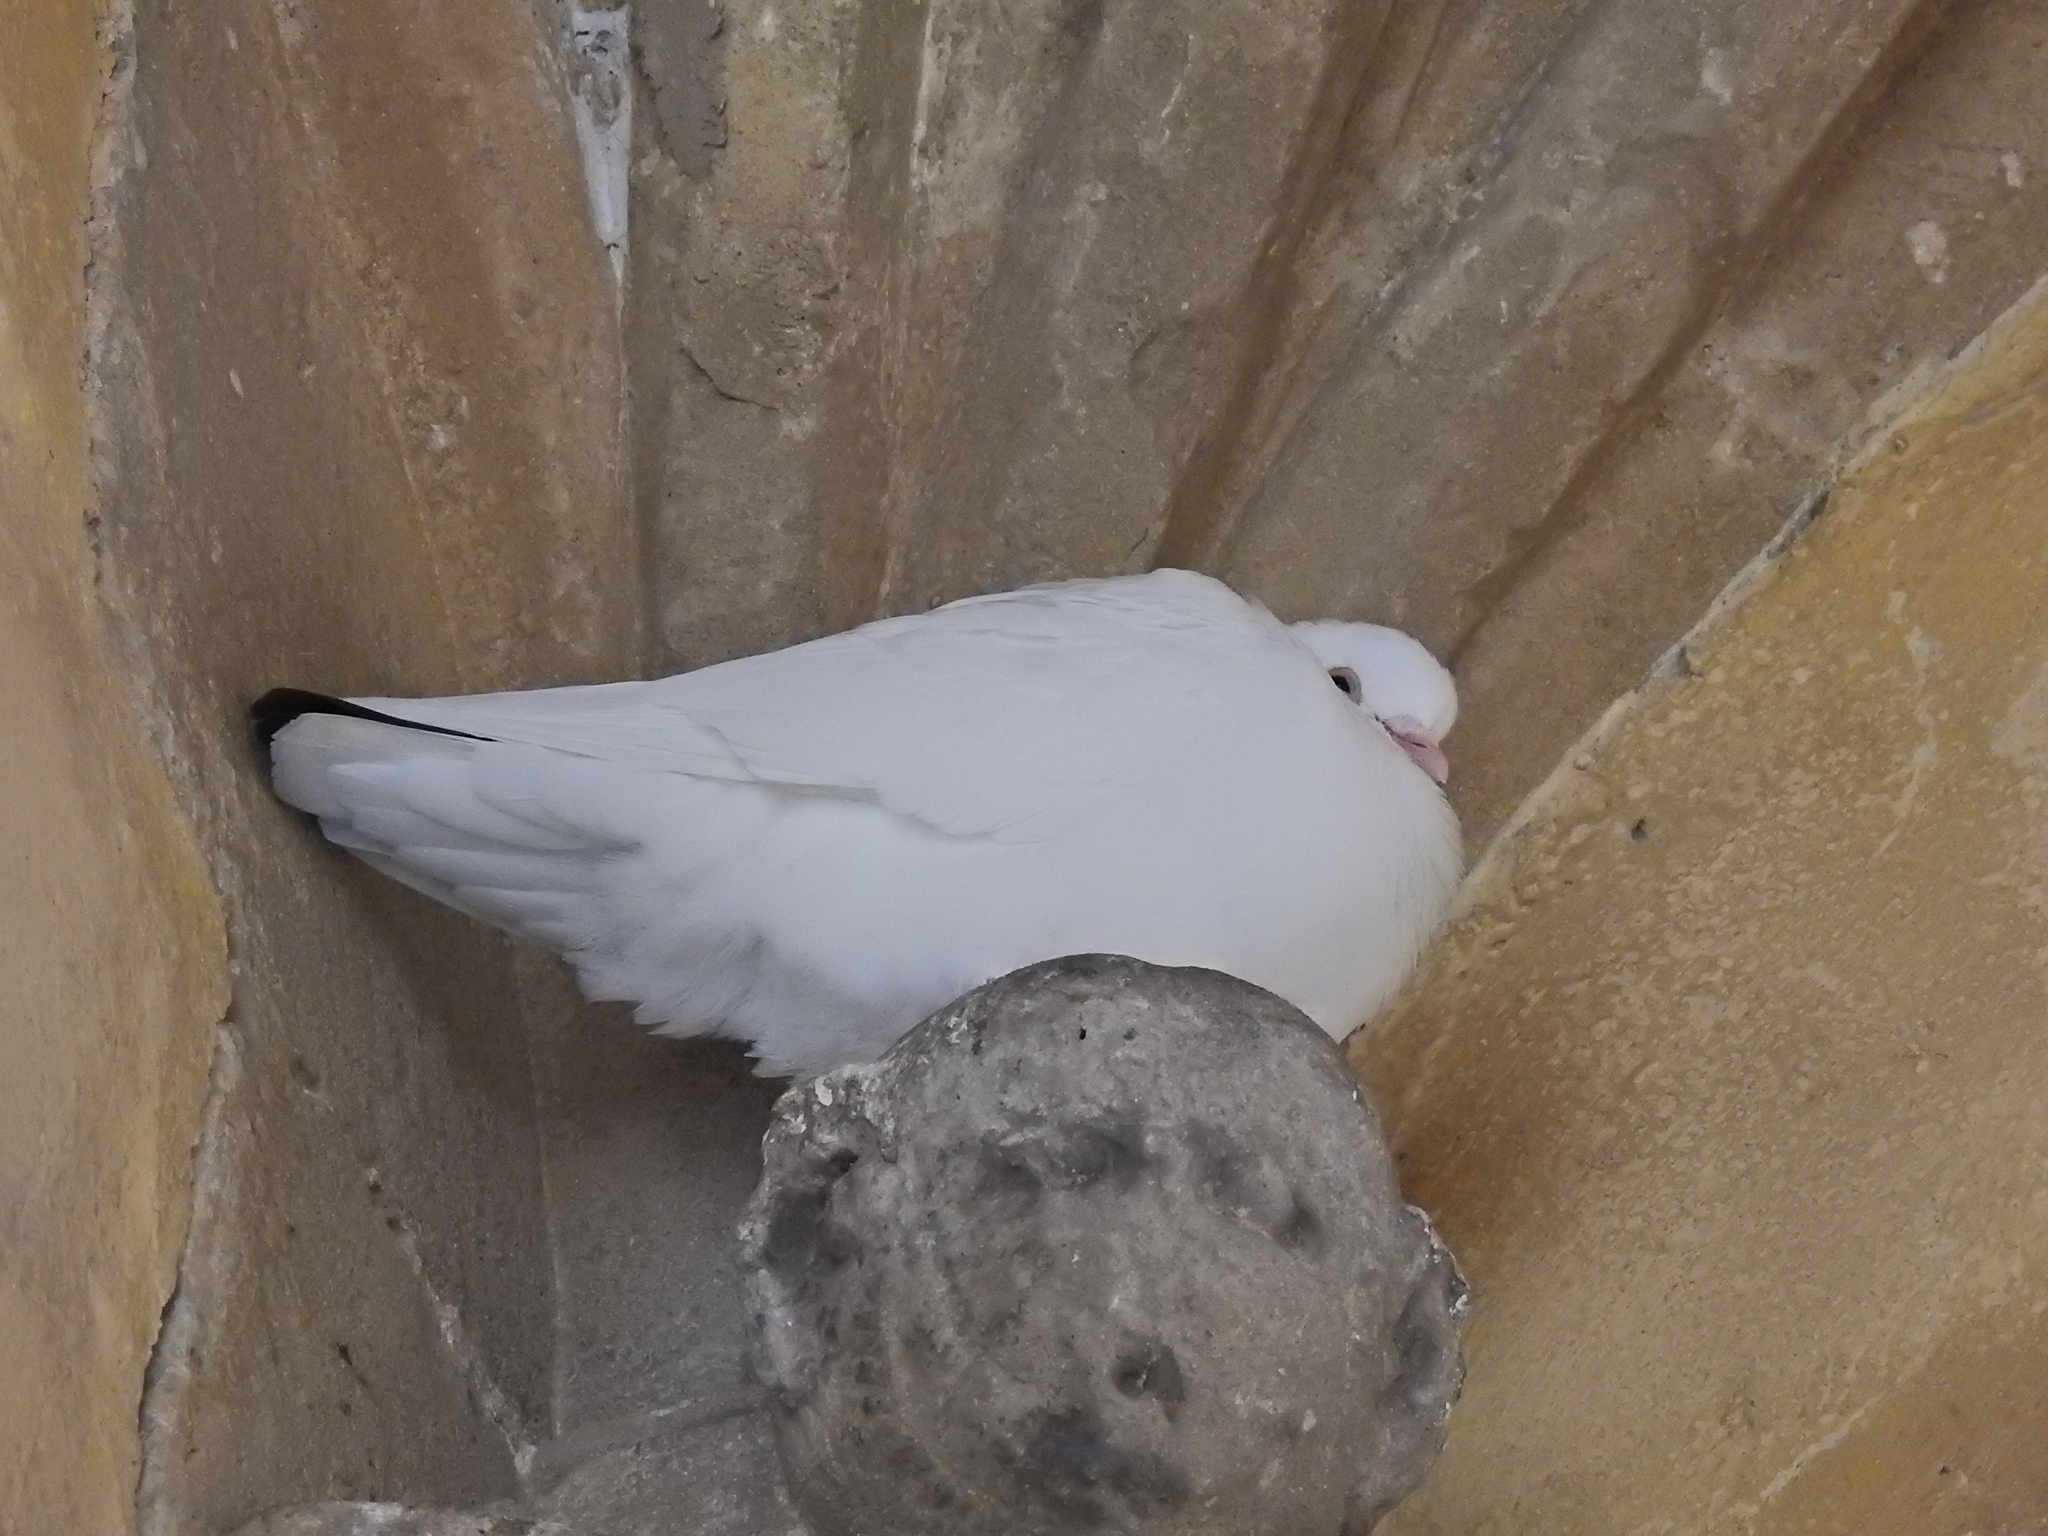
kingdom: Animalia
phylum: Chordata
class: Aves
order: Columbiformes
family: Columbidae
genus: Columba
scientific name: Columba livia
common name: Rock pigeon
